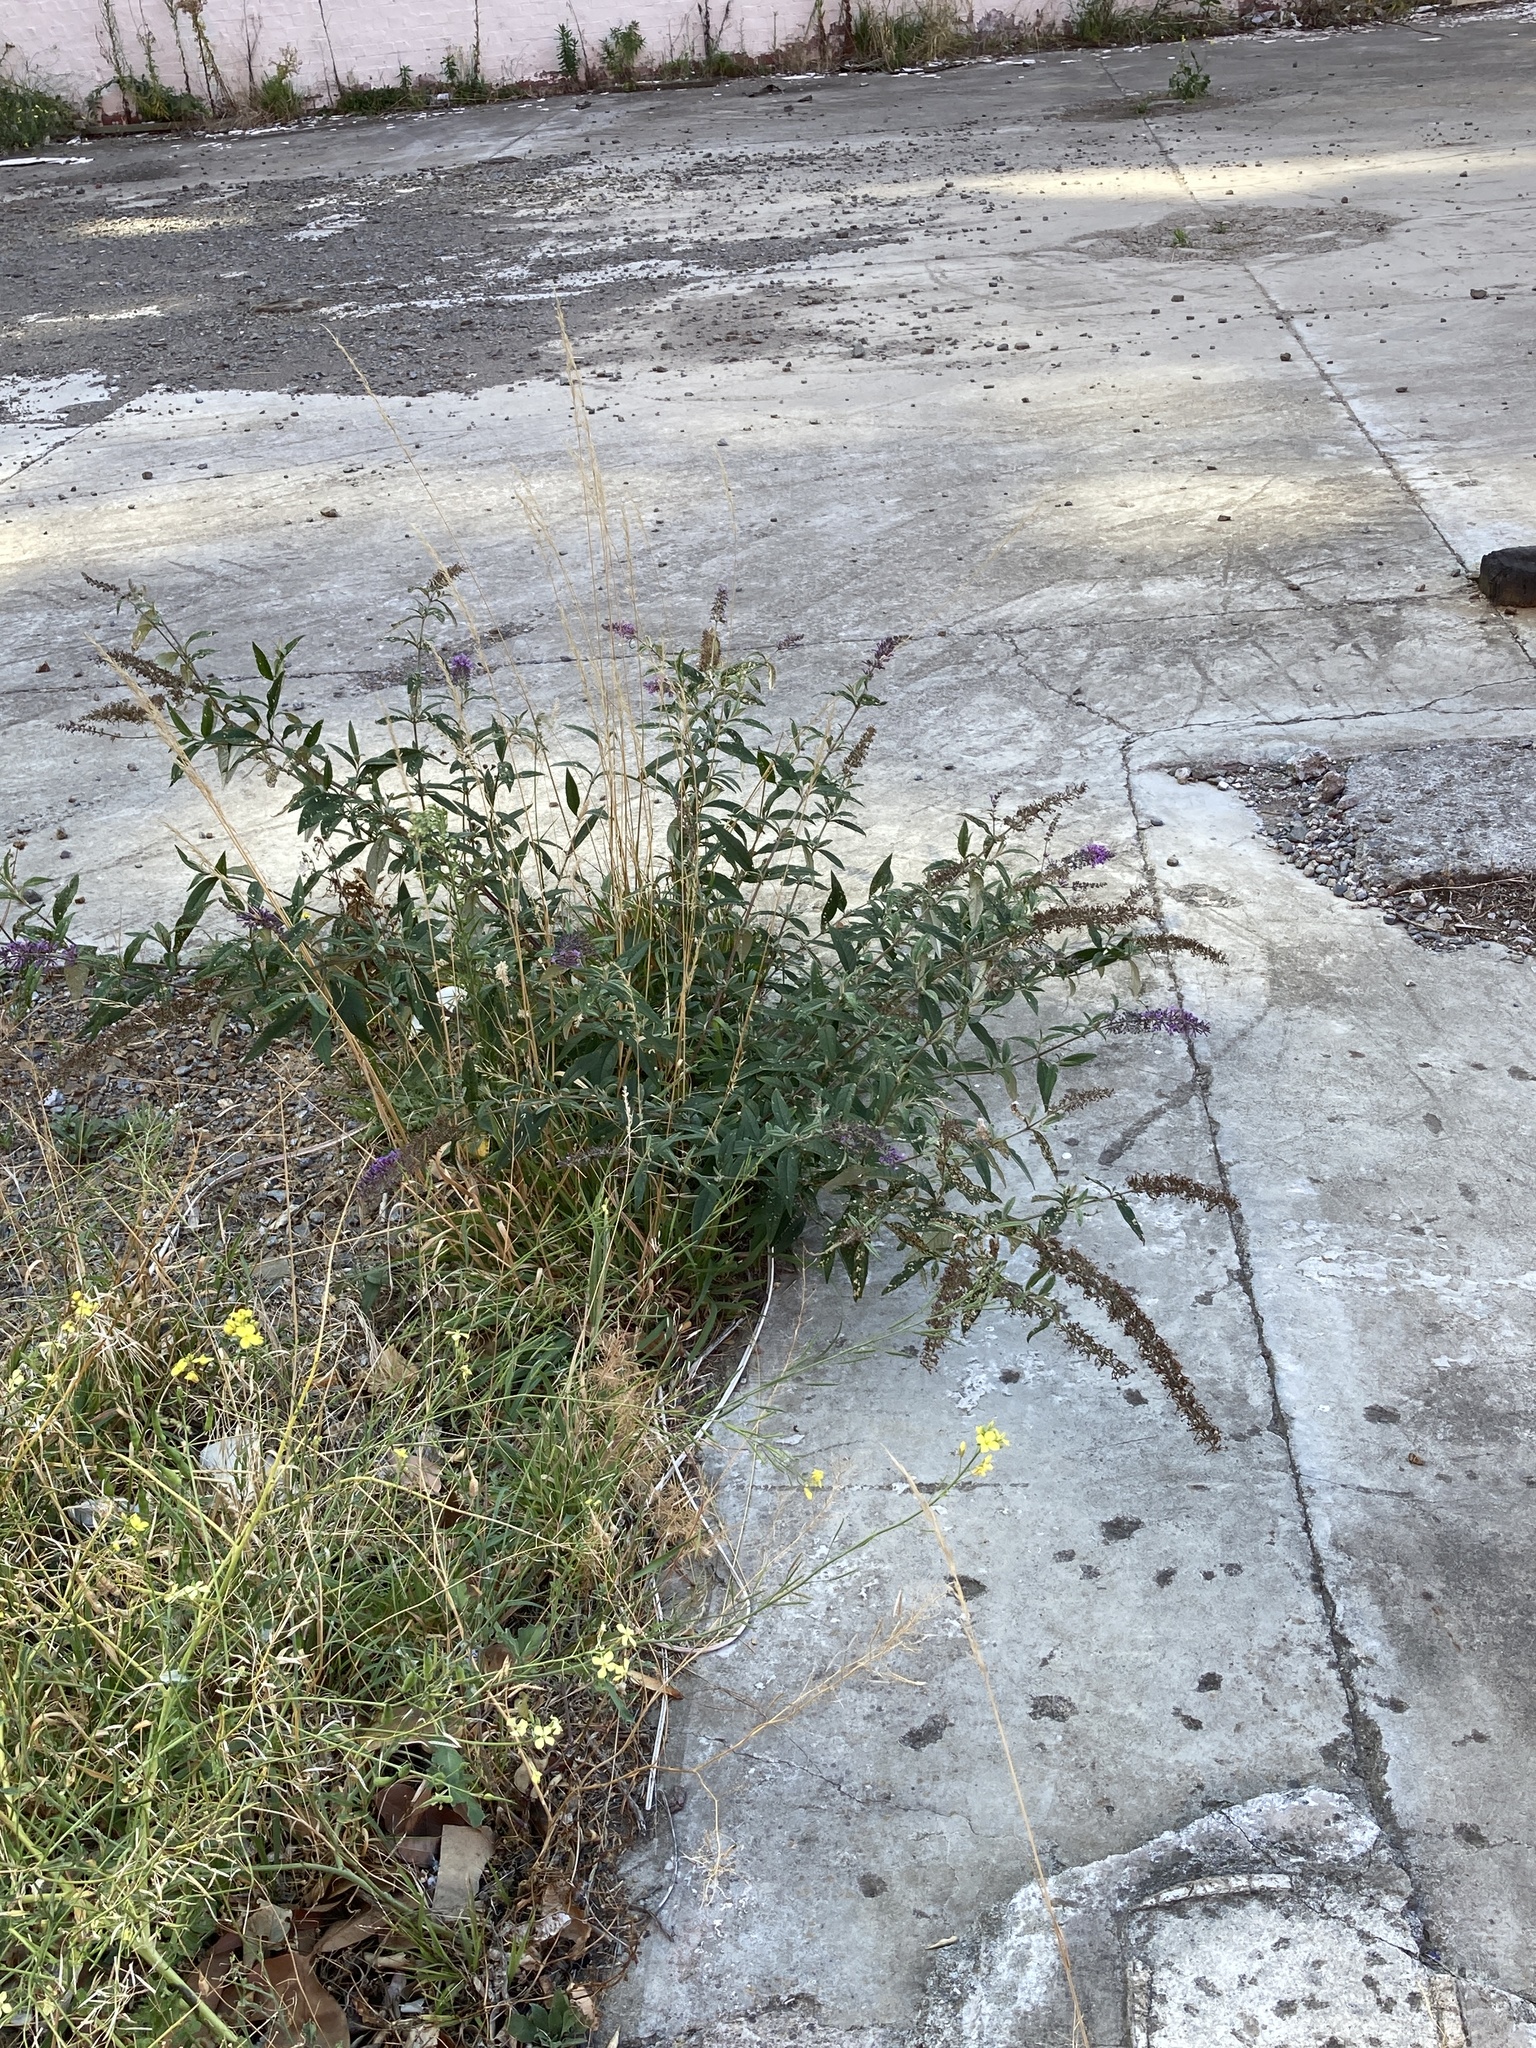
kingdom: Plantae
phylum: Tracheophyta
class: Magnoliopsida
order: Lamiales
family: Scrophulariaceae
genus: Buddleja
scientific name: Buddleja davidii
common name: Butterfly-bush
